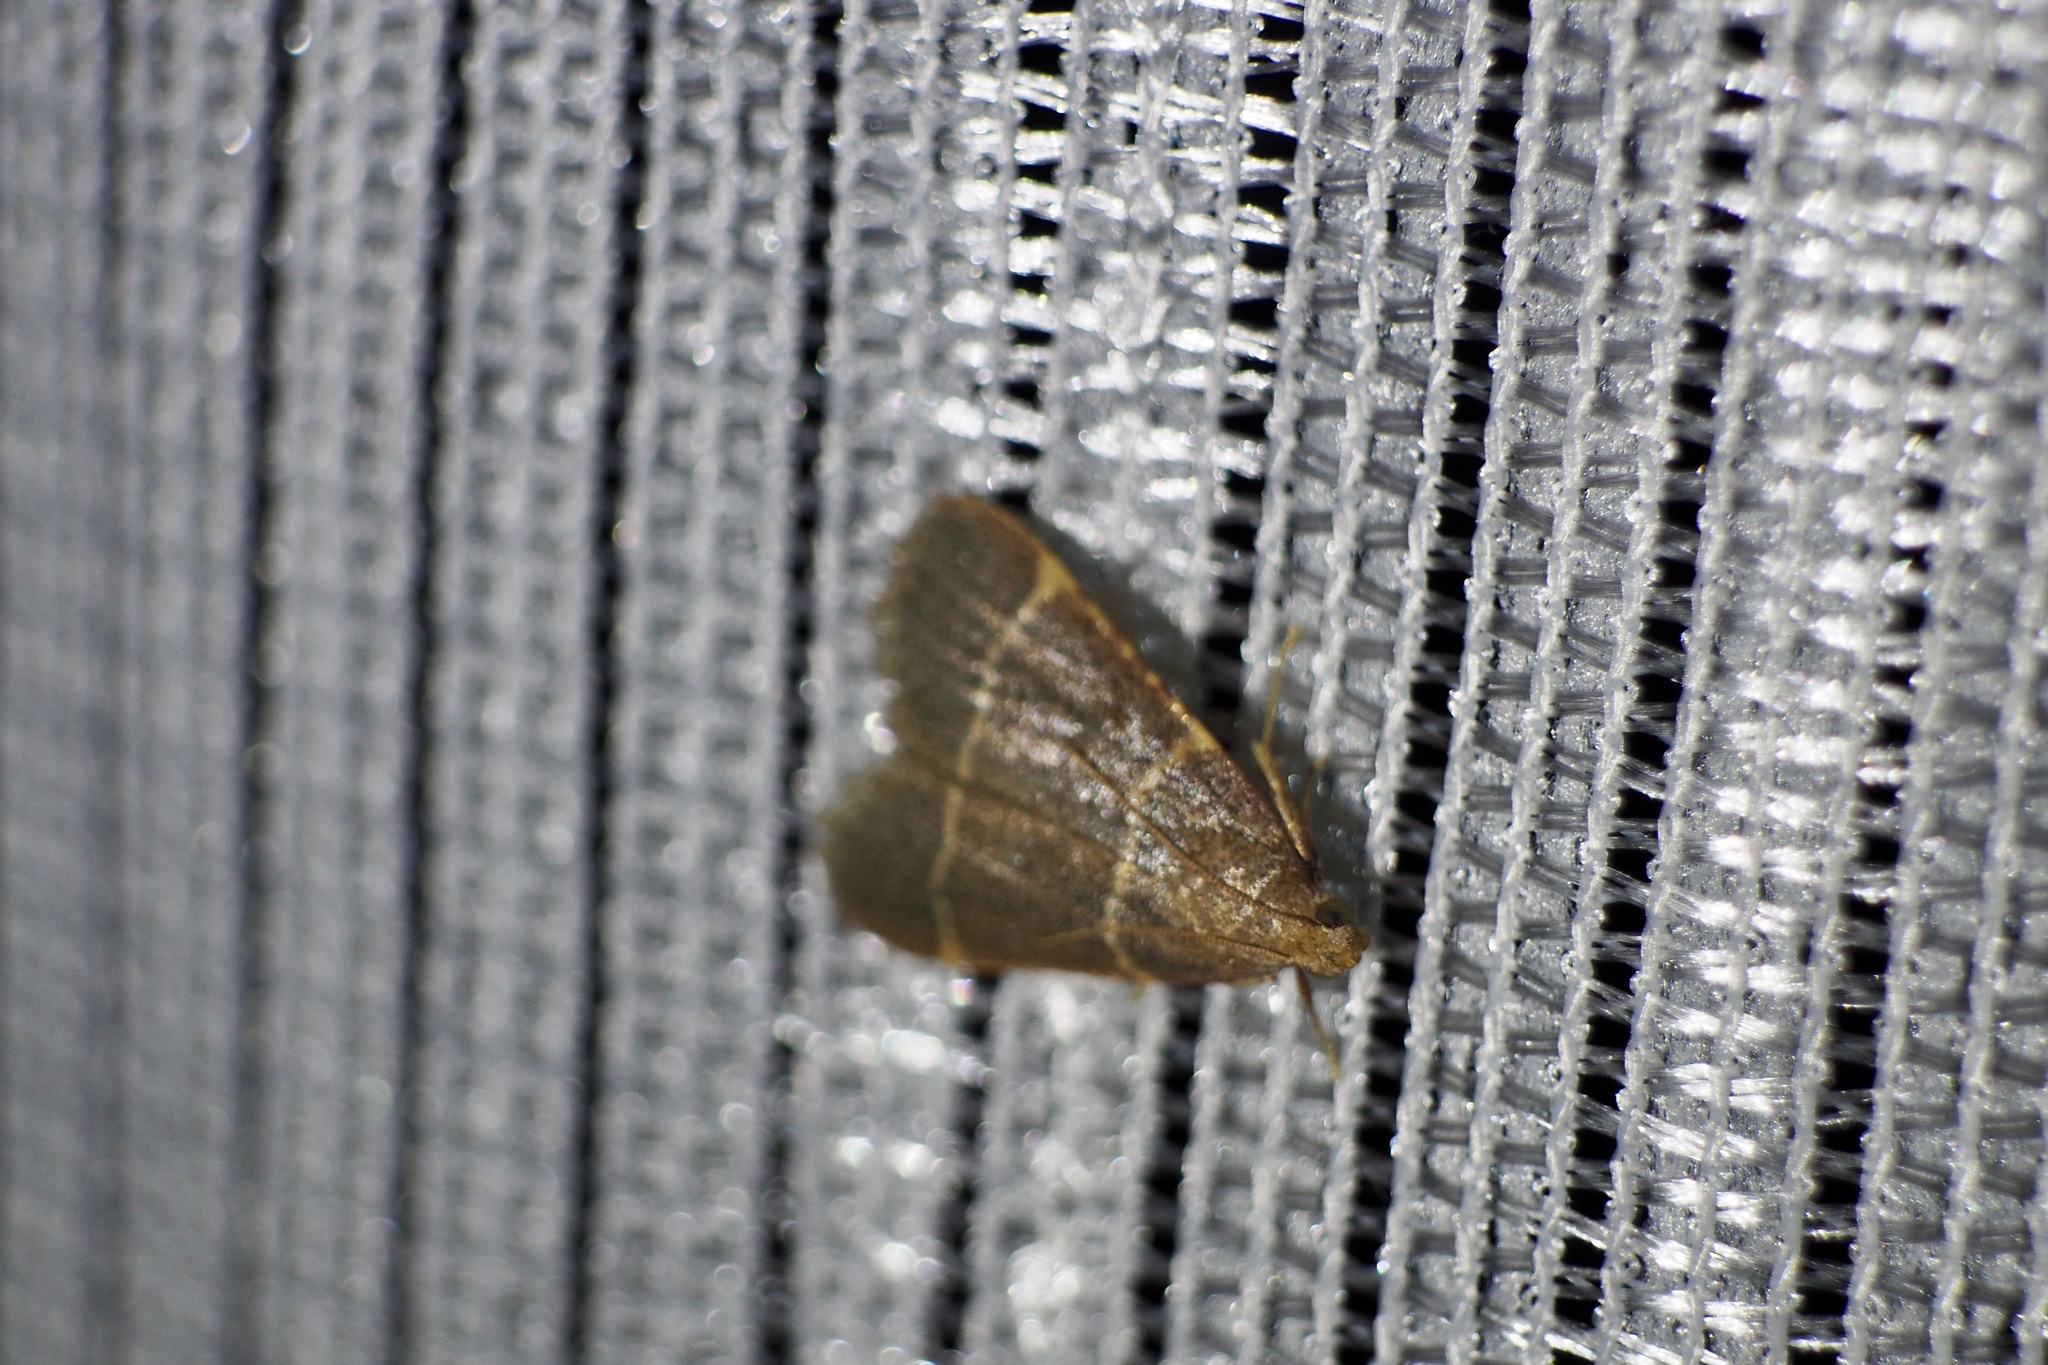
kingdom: Animalia
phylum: Arthropoda
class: Insecta
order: Lepidoptera
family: Pyralidae
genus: Hypsopygia
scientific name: Hypsopygia glaucinalis
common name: Double-striped tabby
